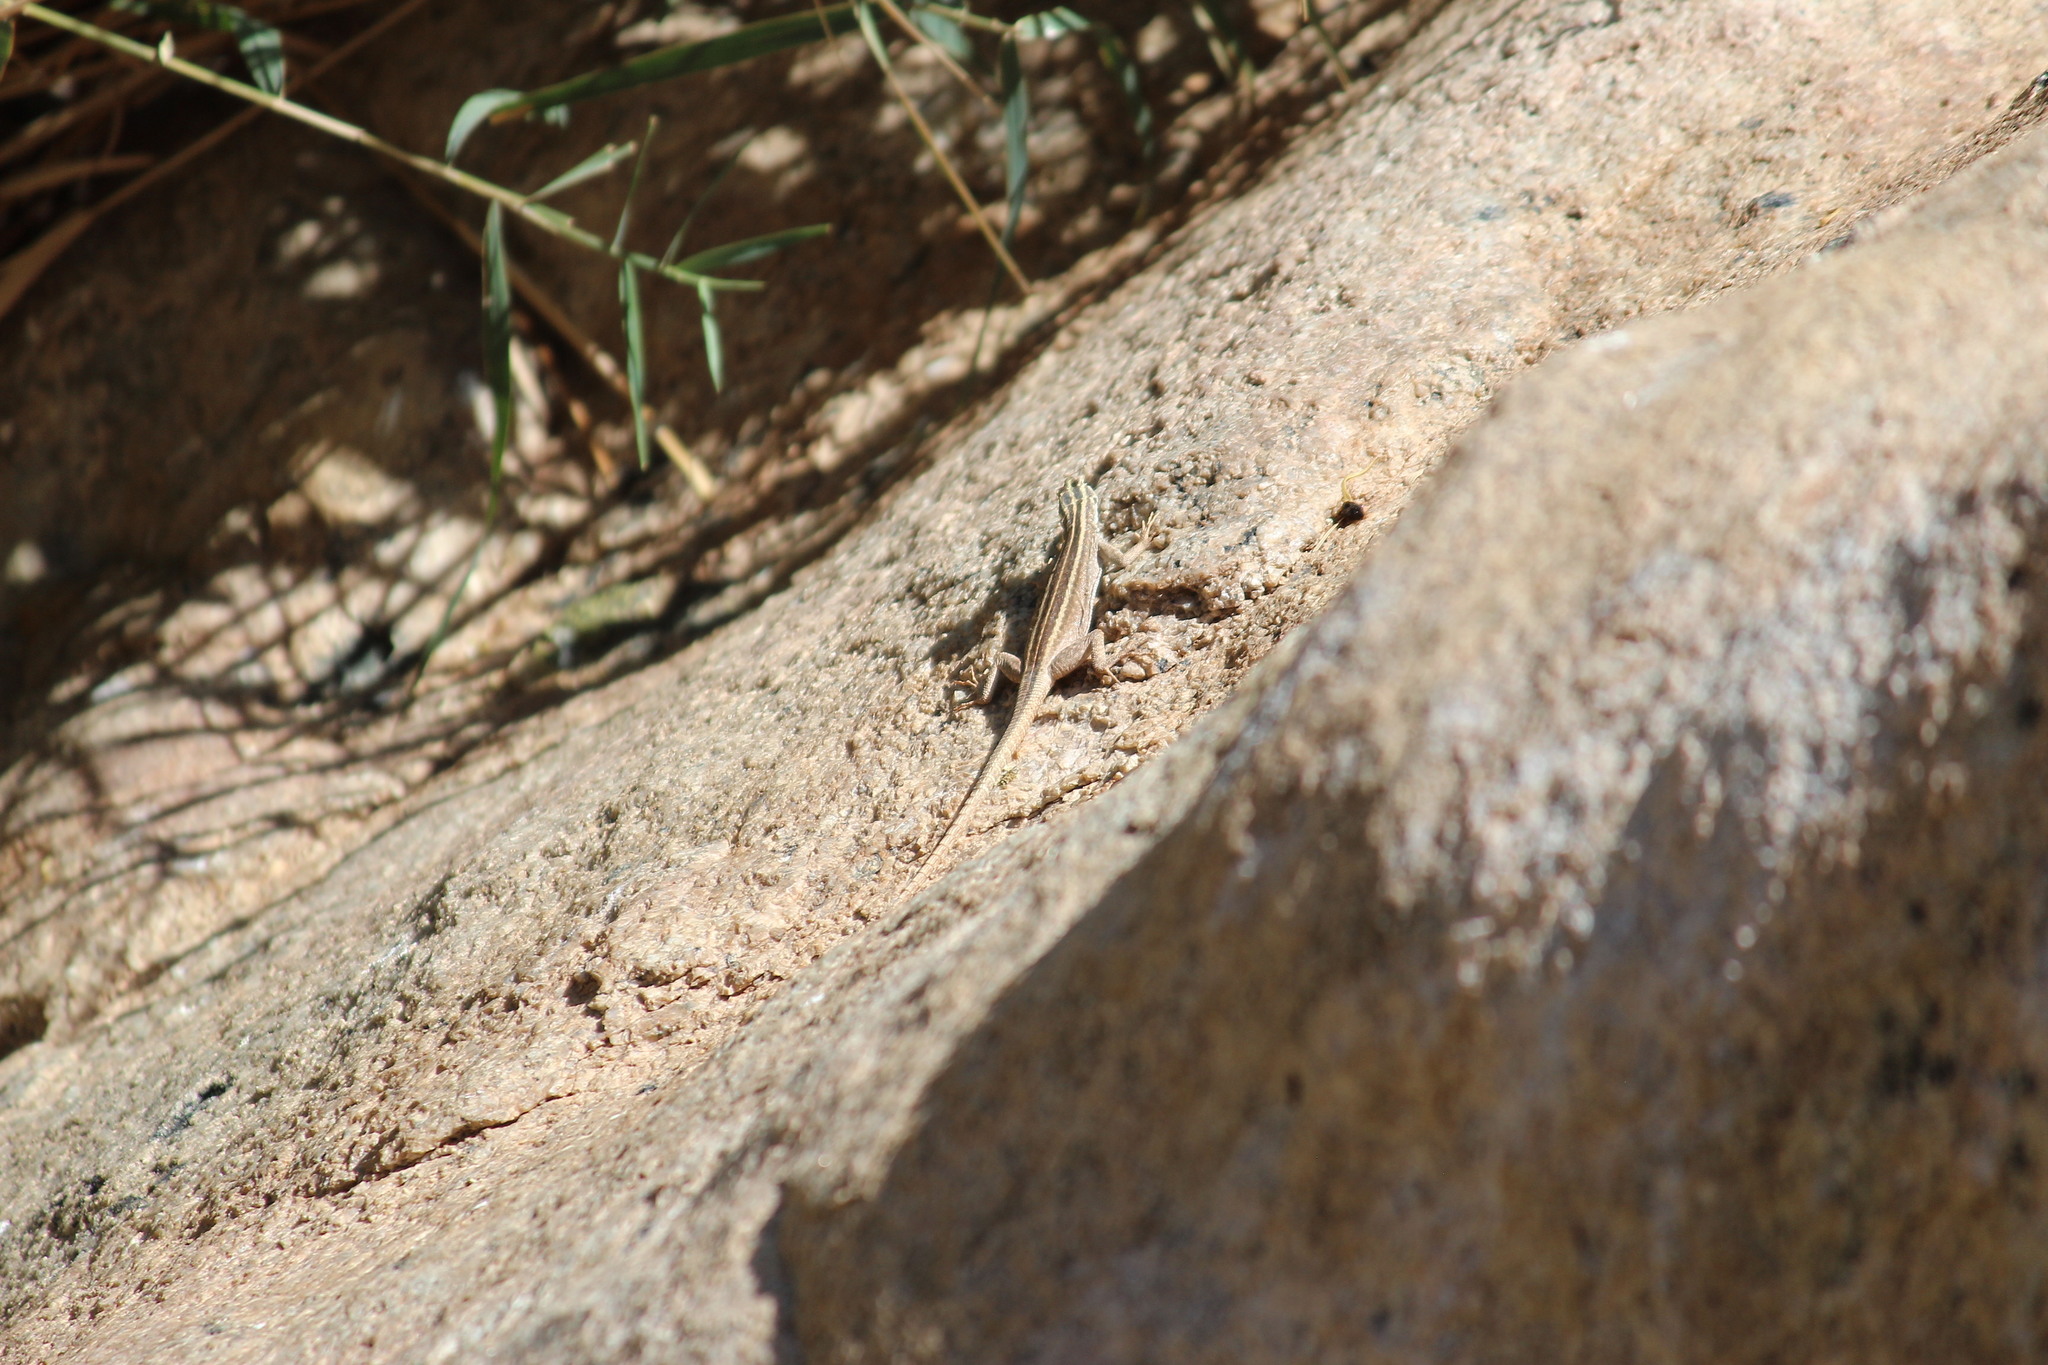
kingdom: Animalia
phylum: Chordata
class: Squamata
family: Cordylidae
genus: Platysaurus
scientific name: Platysaurus broadleyi
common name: Augrabies flat lizard
